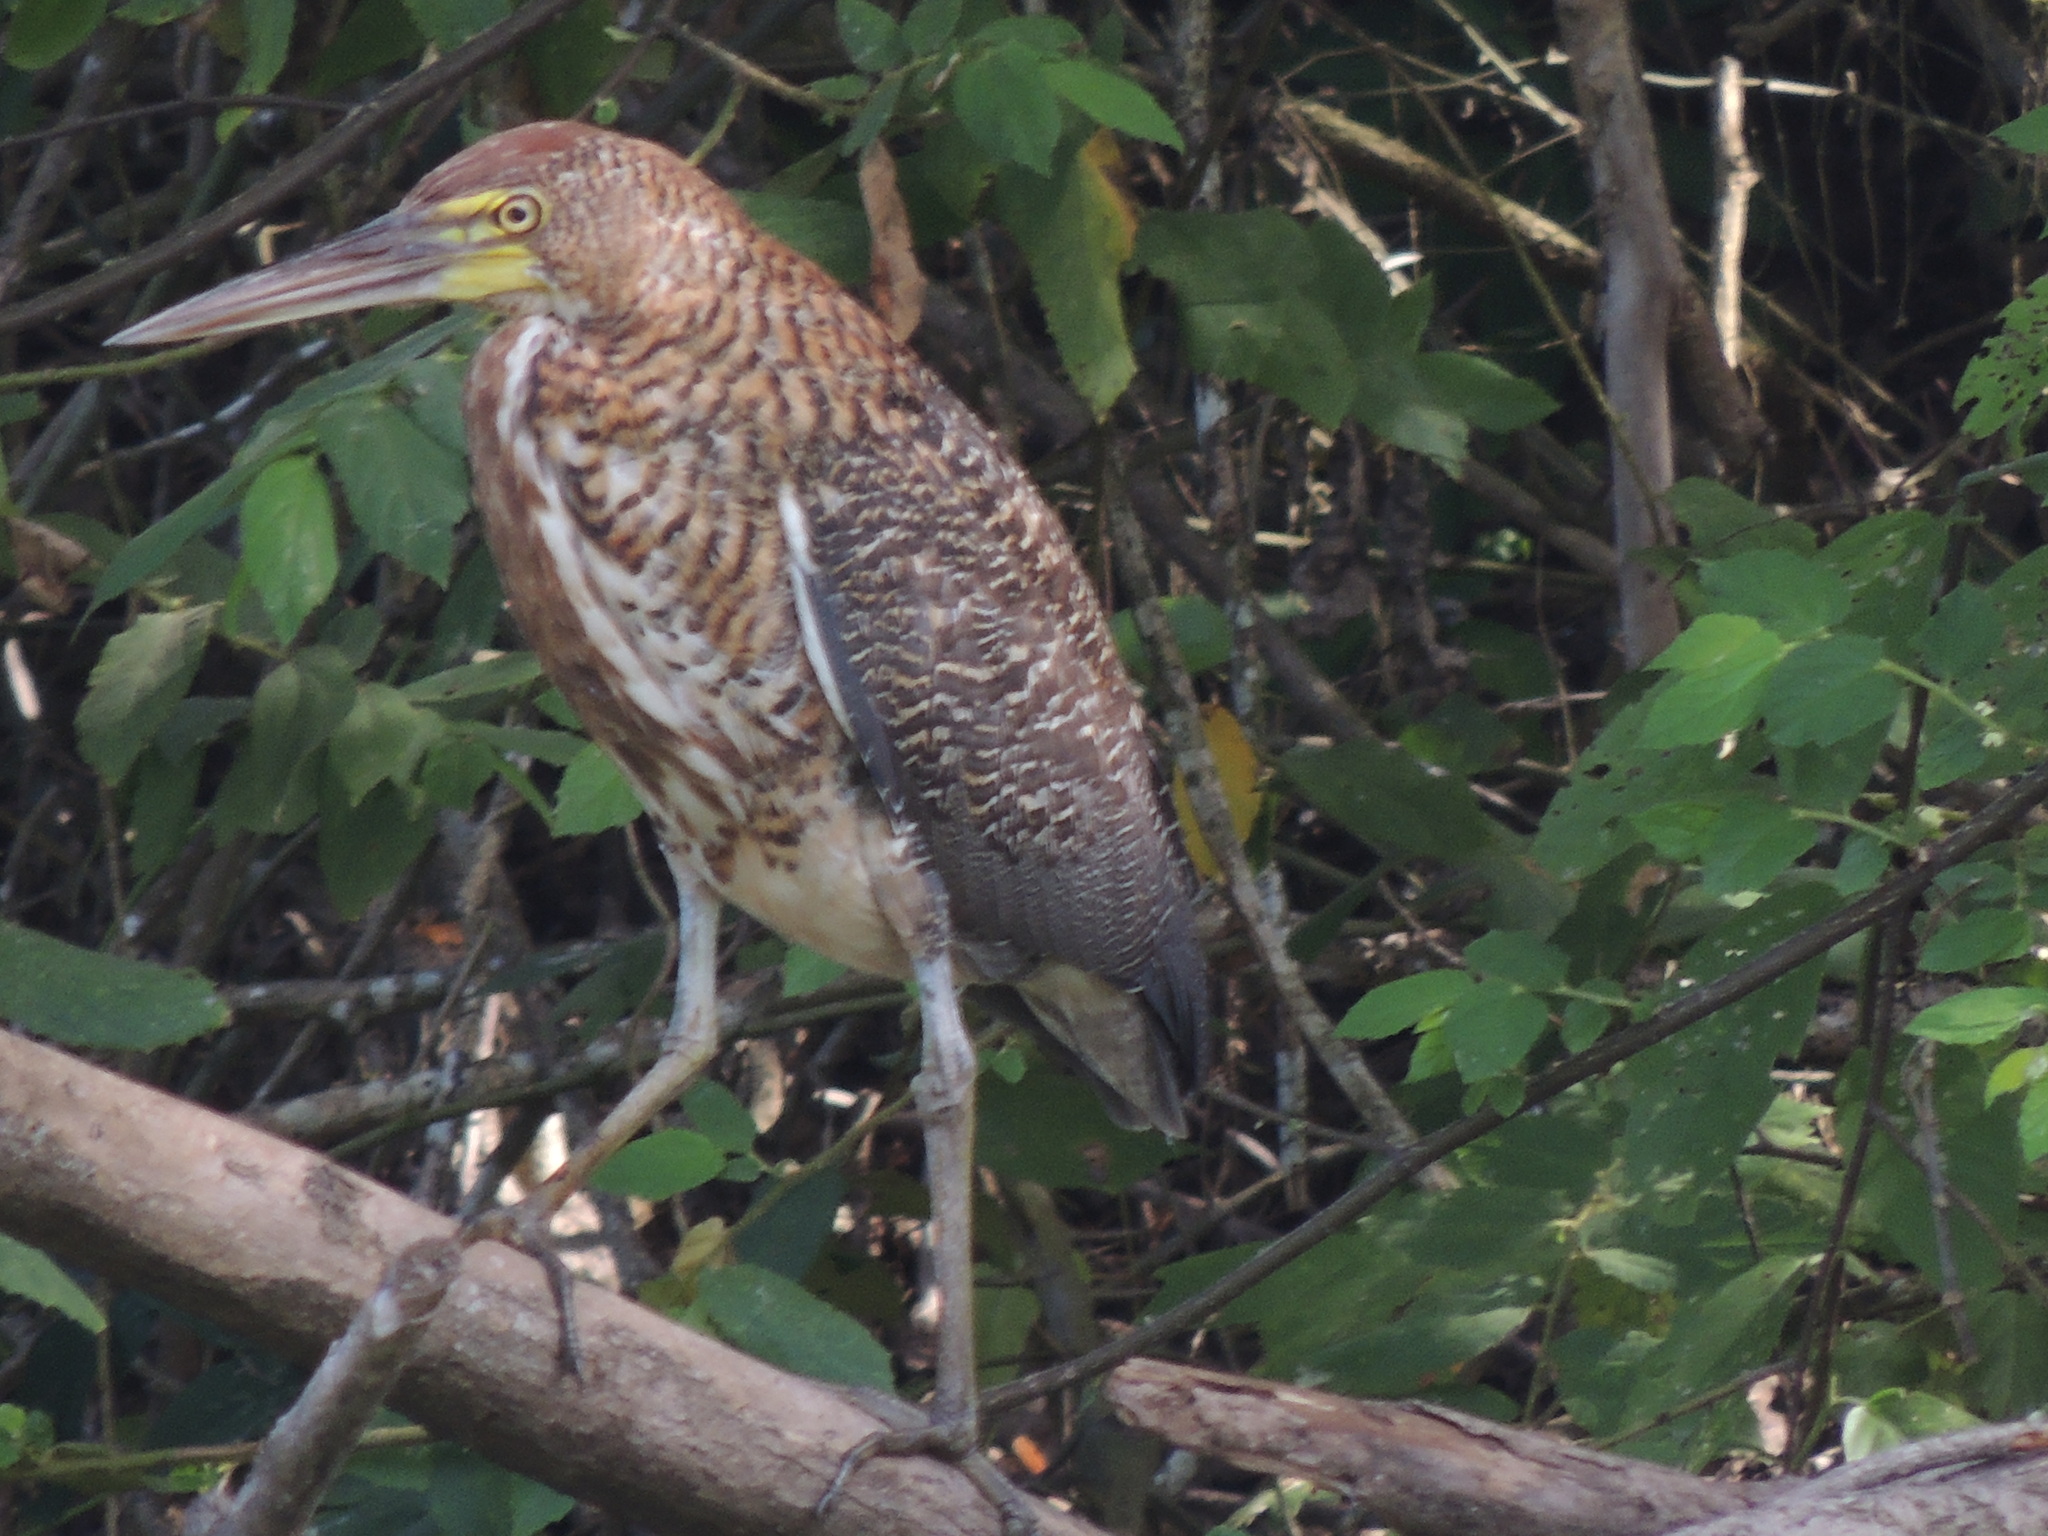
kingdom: Animalia
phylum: Chordata
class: Aves
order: Pelecaniformes
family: Ardeidae
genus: Tigrisoma
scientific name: Tigrisoma lineatum
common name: Rufescent tiger-heron
